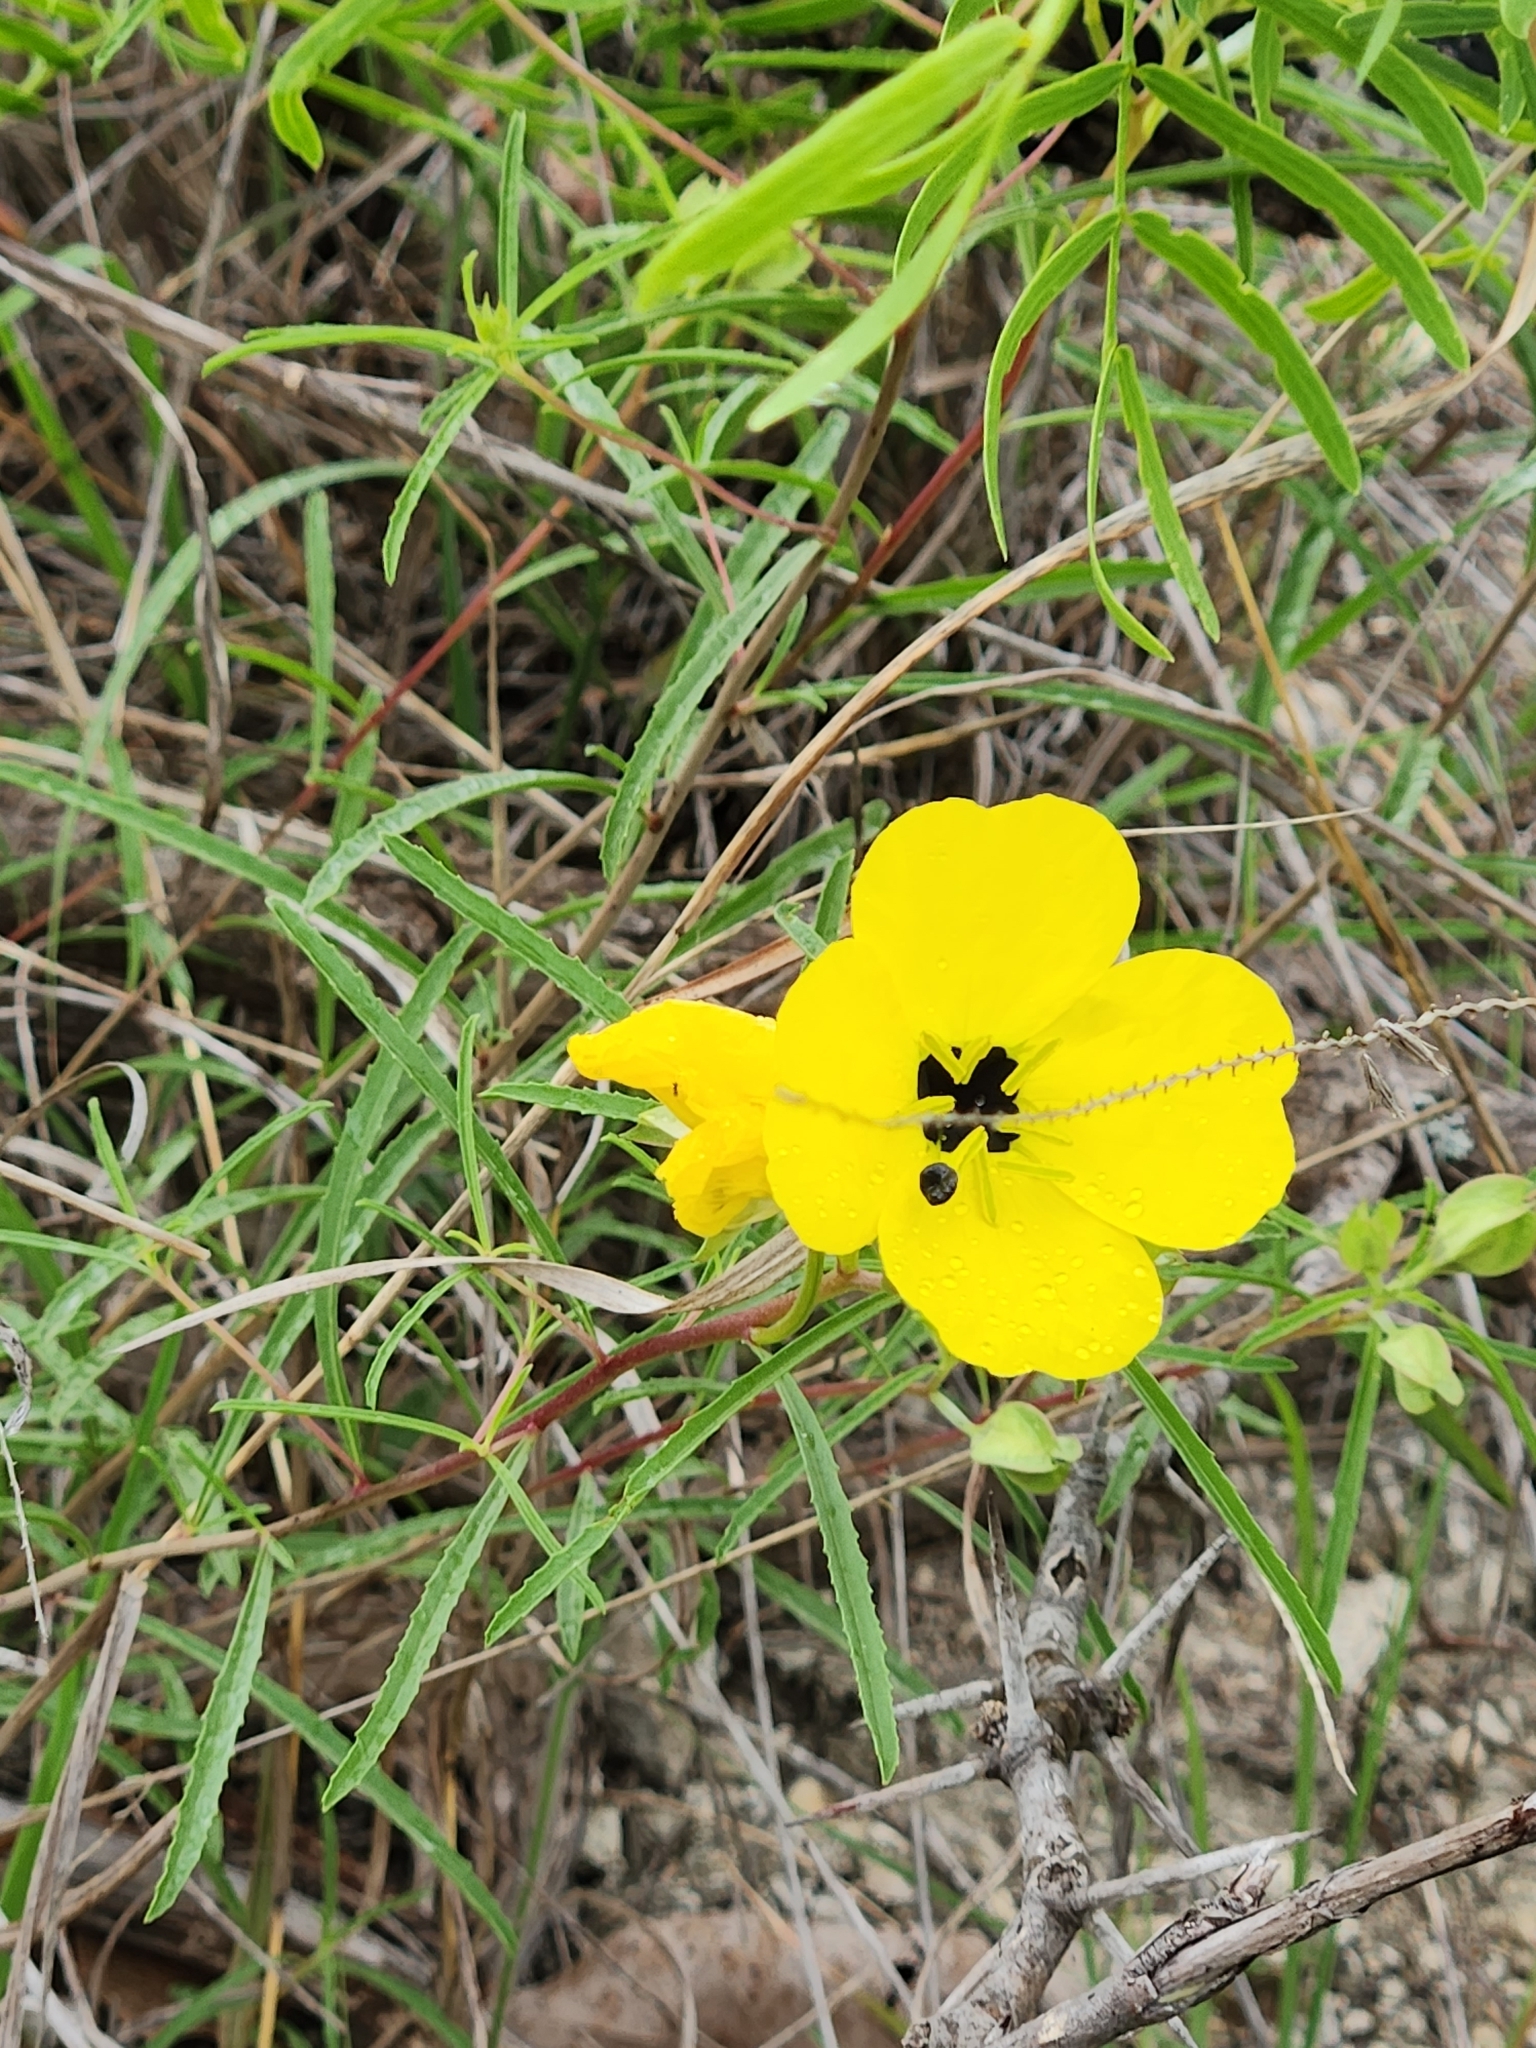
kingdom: Plantae
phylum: Tracheophyta
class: Magnoliopsida
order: Myrtales
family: Onagraceae
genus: Oenothera
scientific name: Oenothera capillifolia
